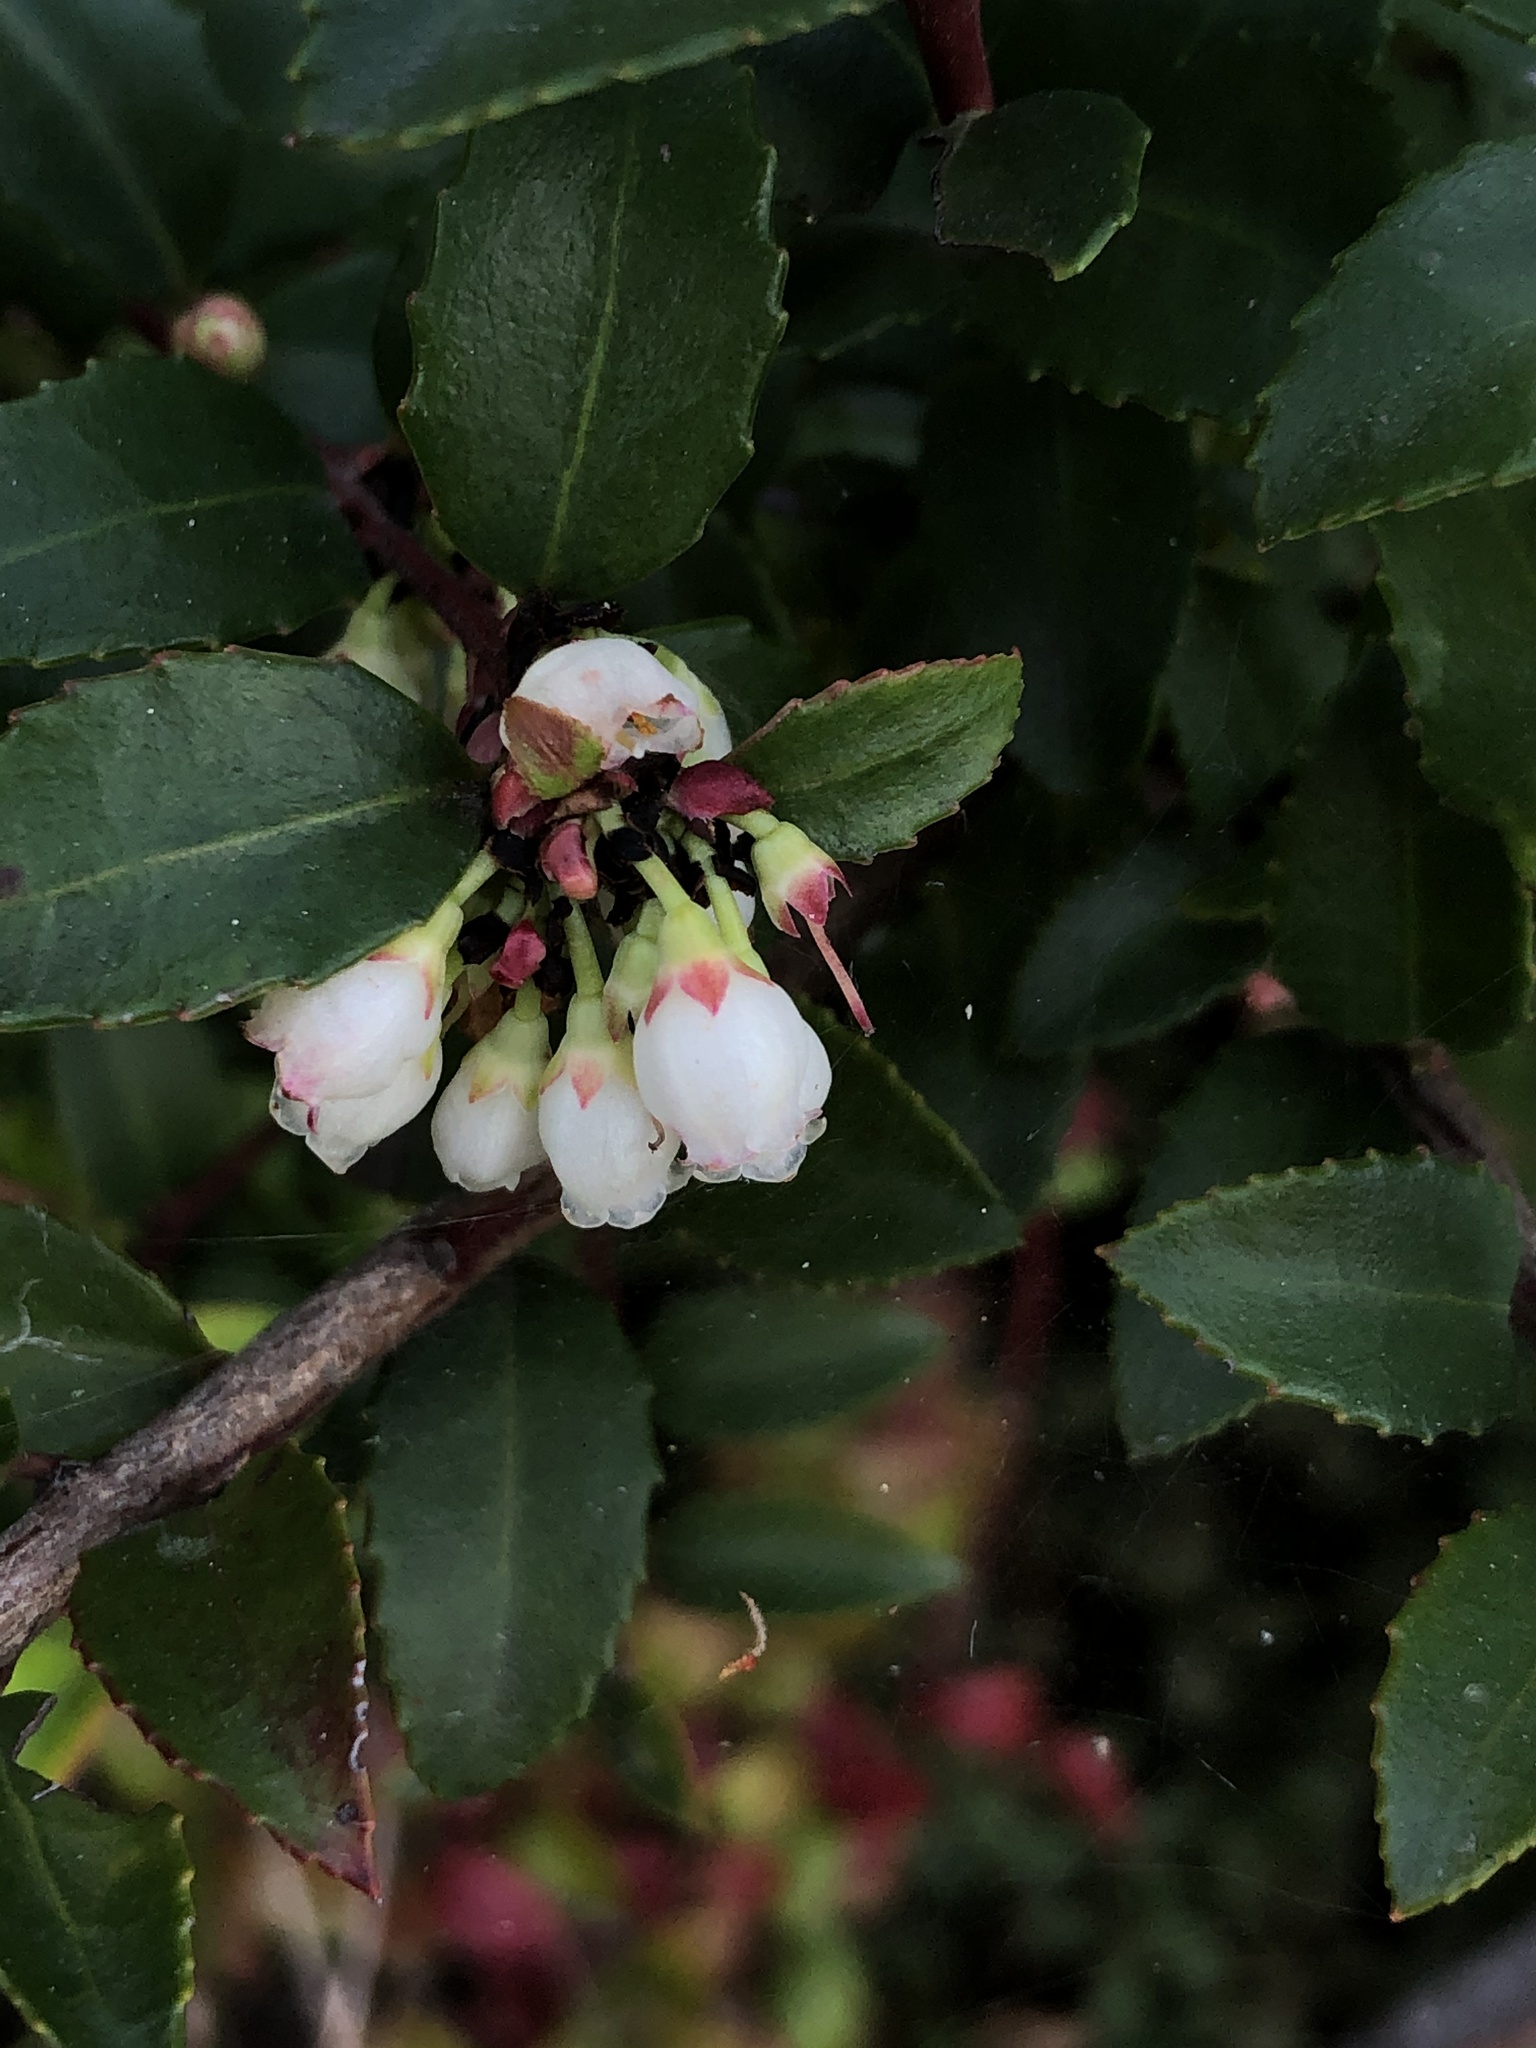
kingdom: Plantae
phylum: Tracheophyta
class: Magnoliopsida
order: Ericales
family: Ericaceae
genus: Vaccinium
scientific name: Vaccinium ovatum
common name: California-huckleberry
